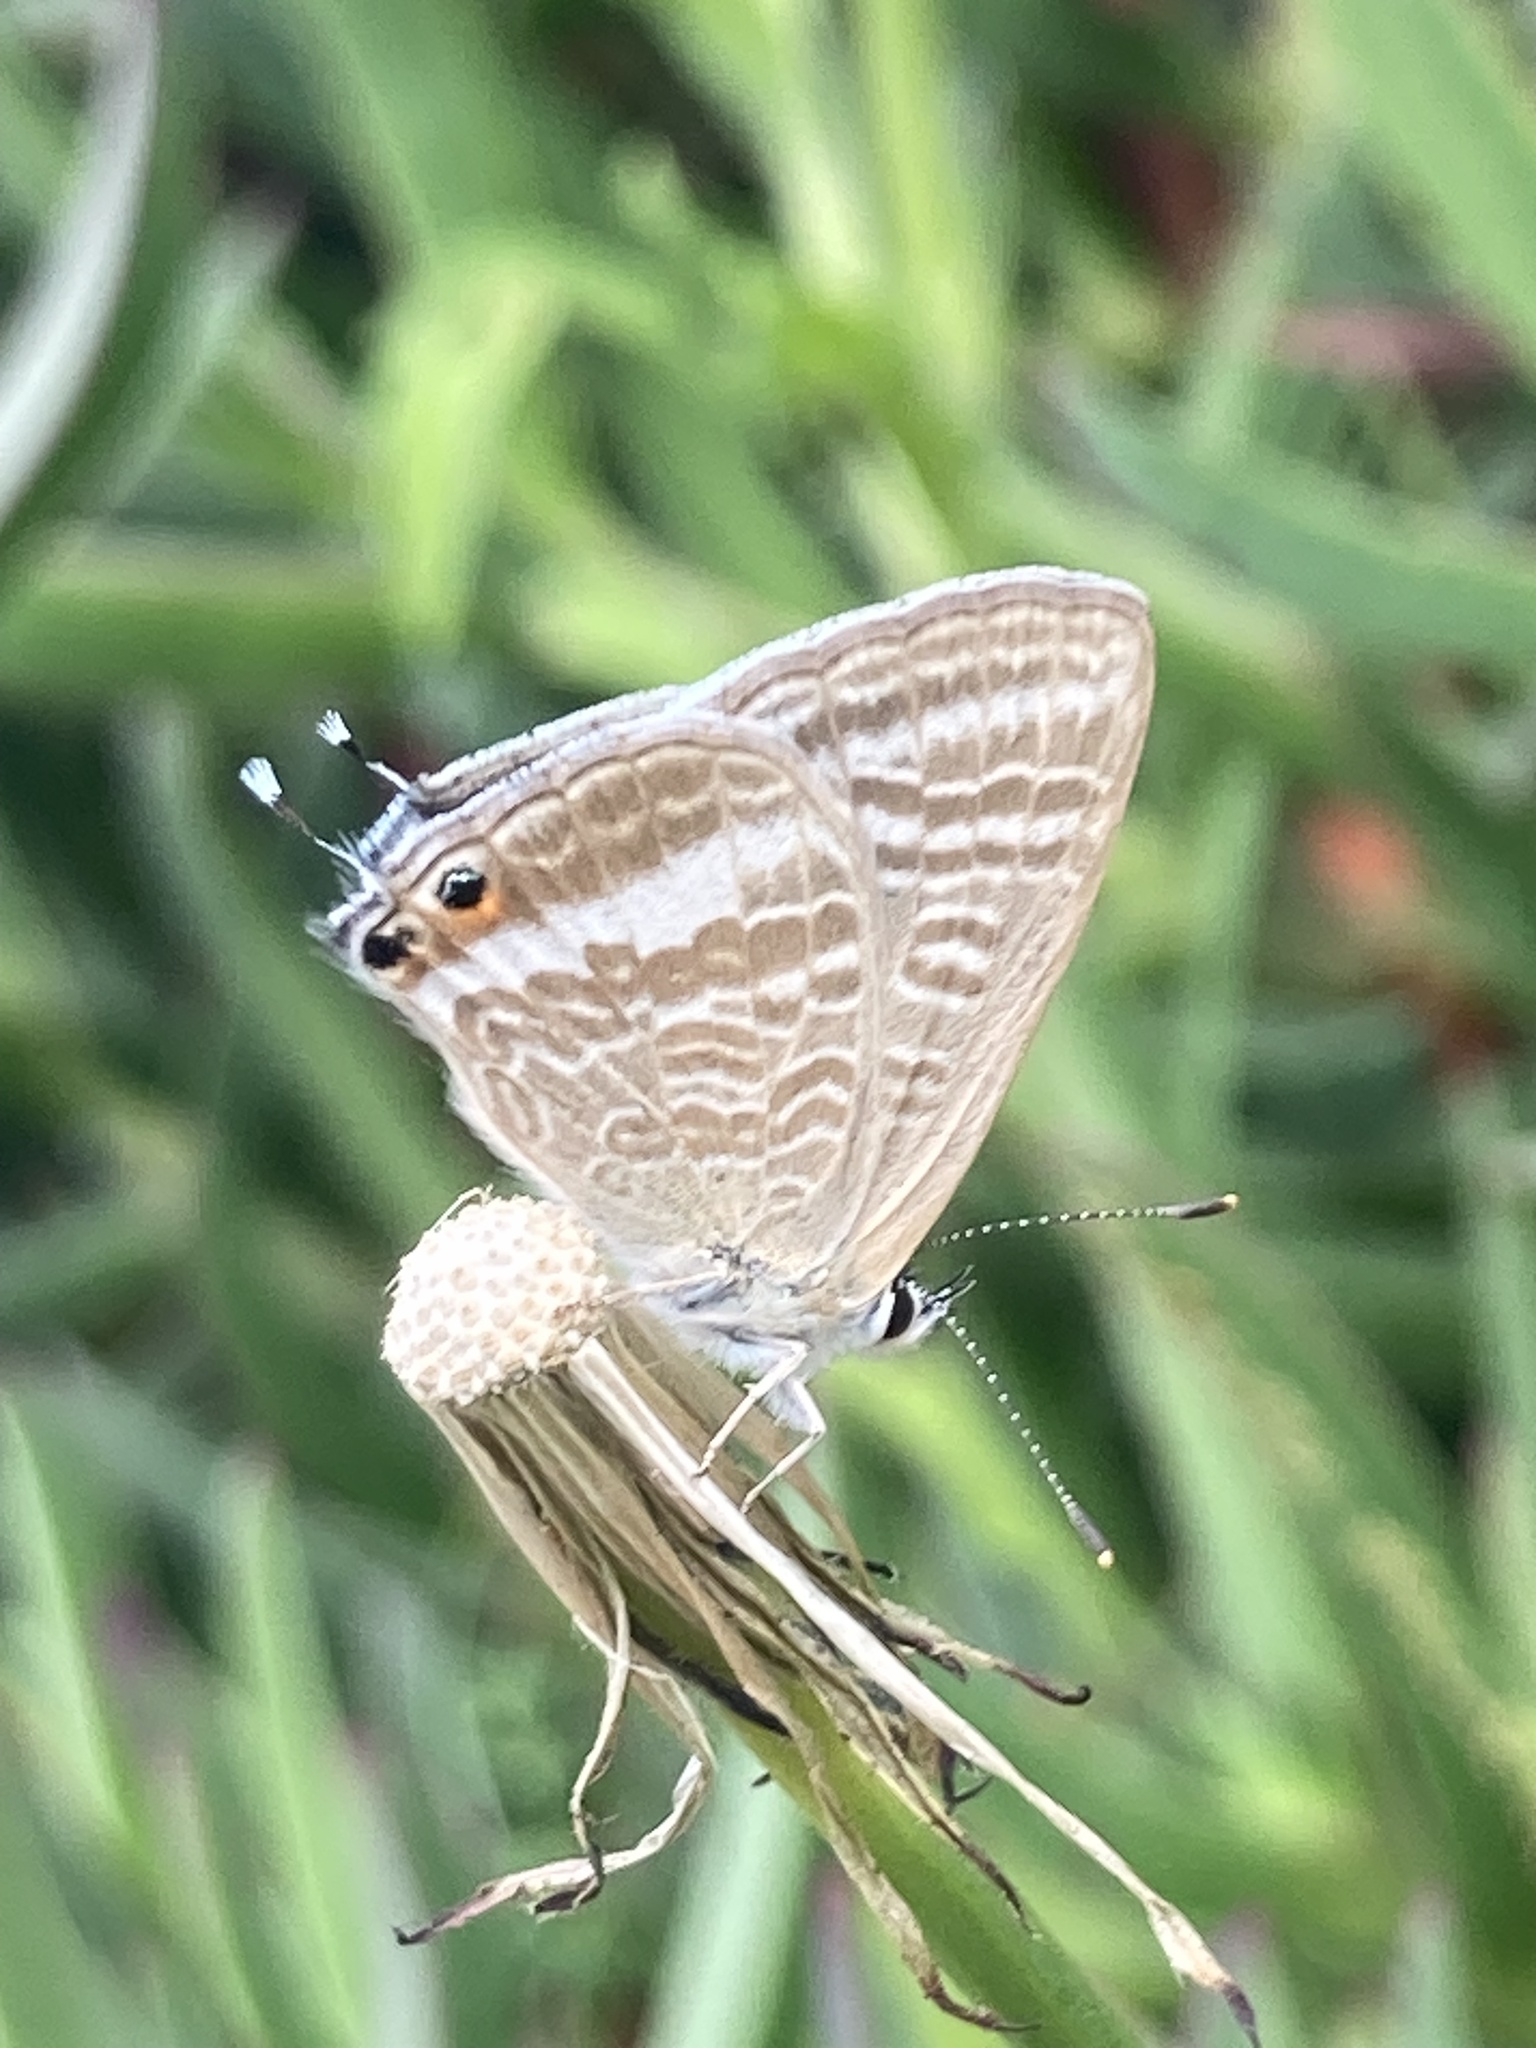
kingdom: Animalia
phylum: Arthropoda
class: Insecta
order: Lepidoptera
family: Lycaenidae
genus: Lampides
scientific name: Lampides boeticus
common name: Long-tailed blue
